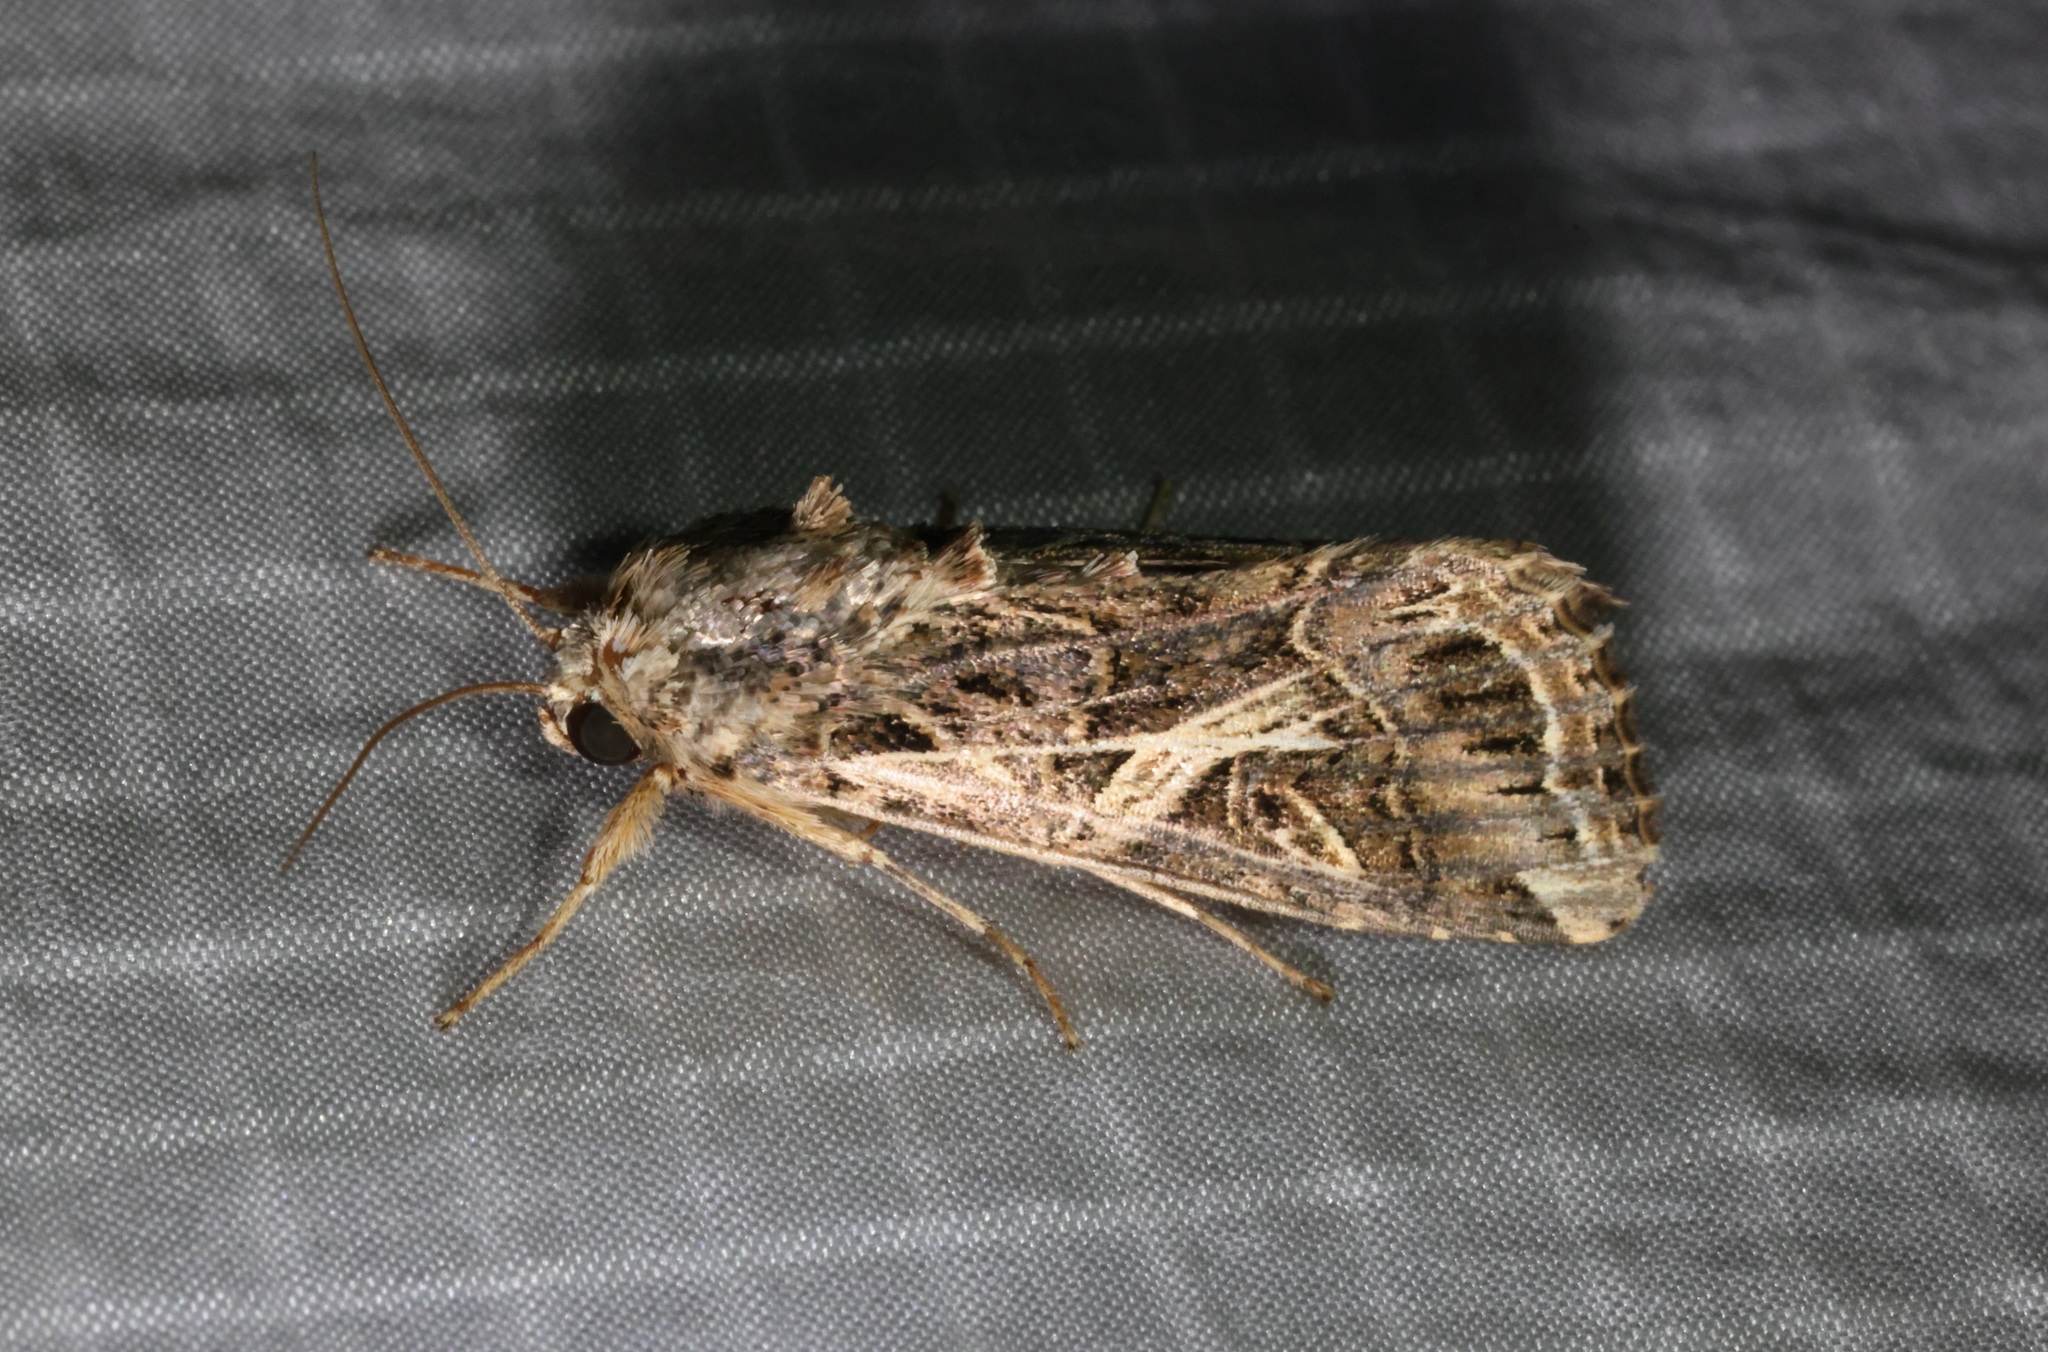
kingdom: Animalia
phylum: Arthropoda
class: Insecta
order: Lepidoptera
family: Noctuidae
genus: Spodoptera
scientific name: Spodoptera litura
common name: Asian cotton leafworm
